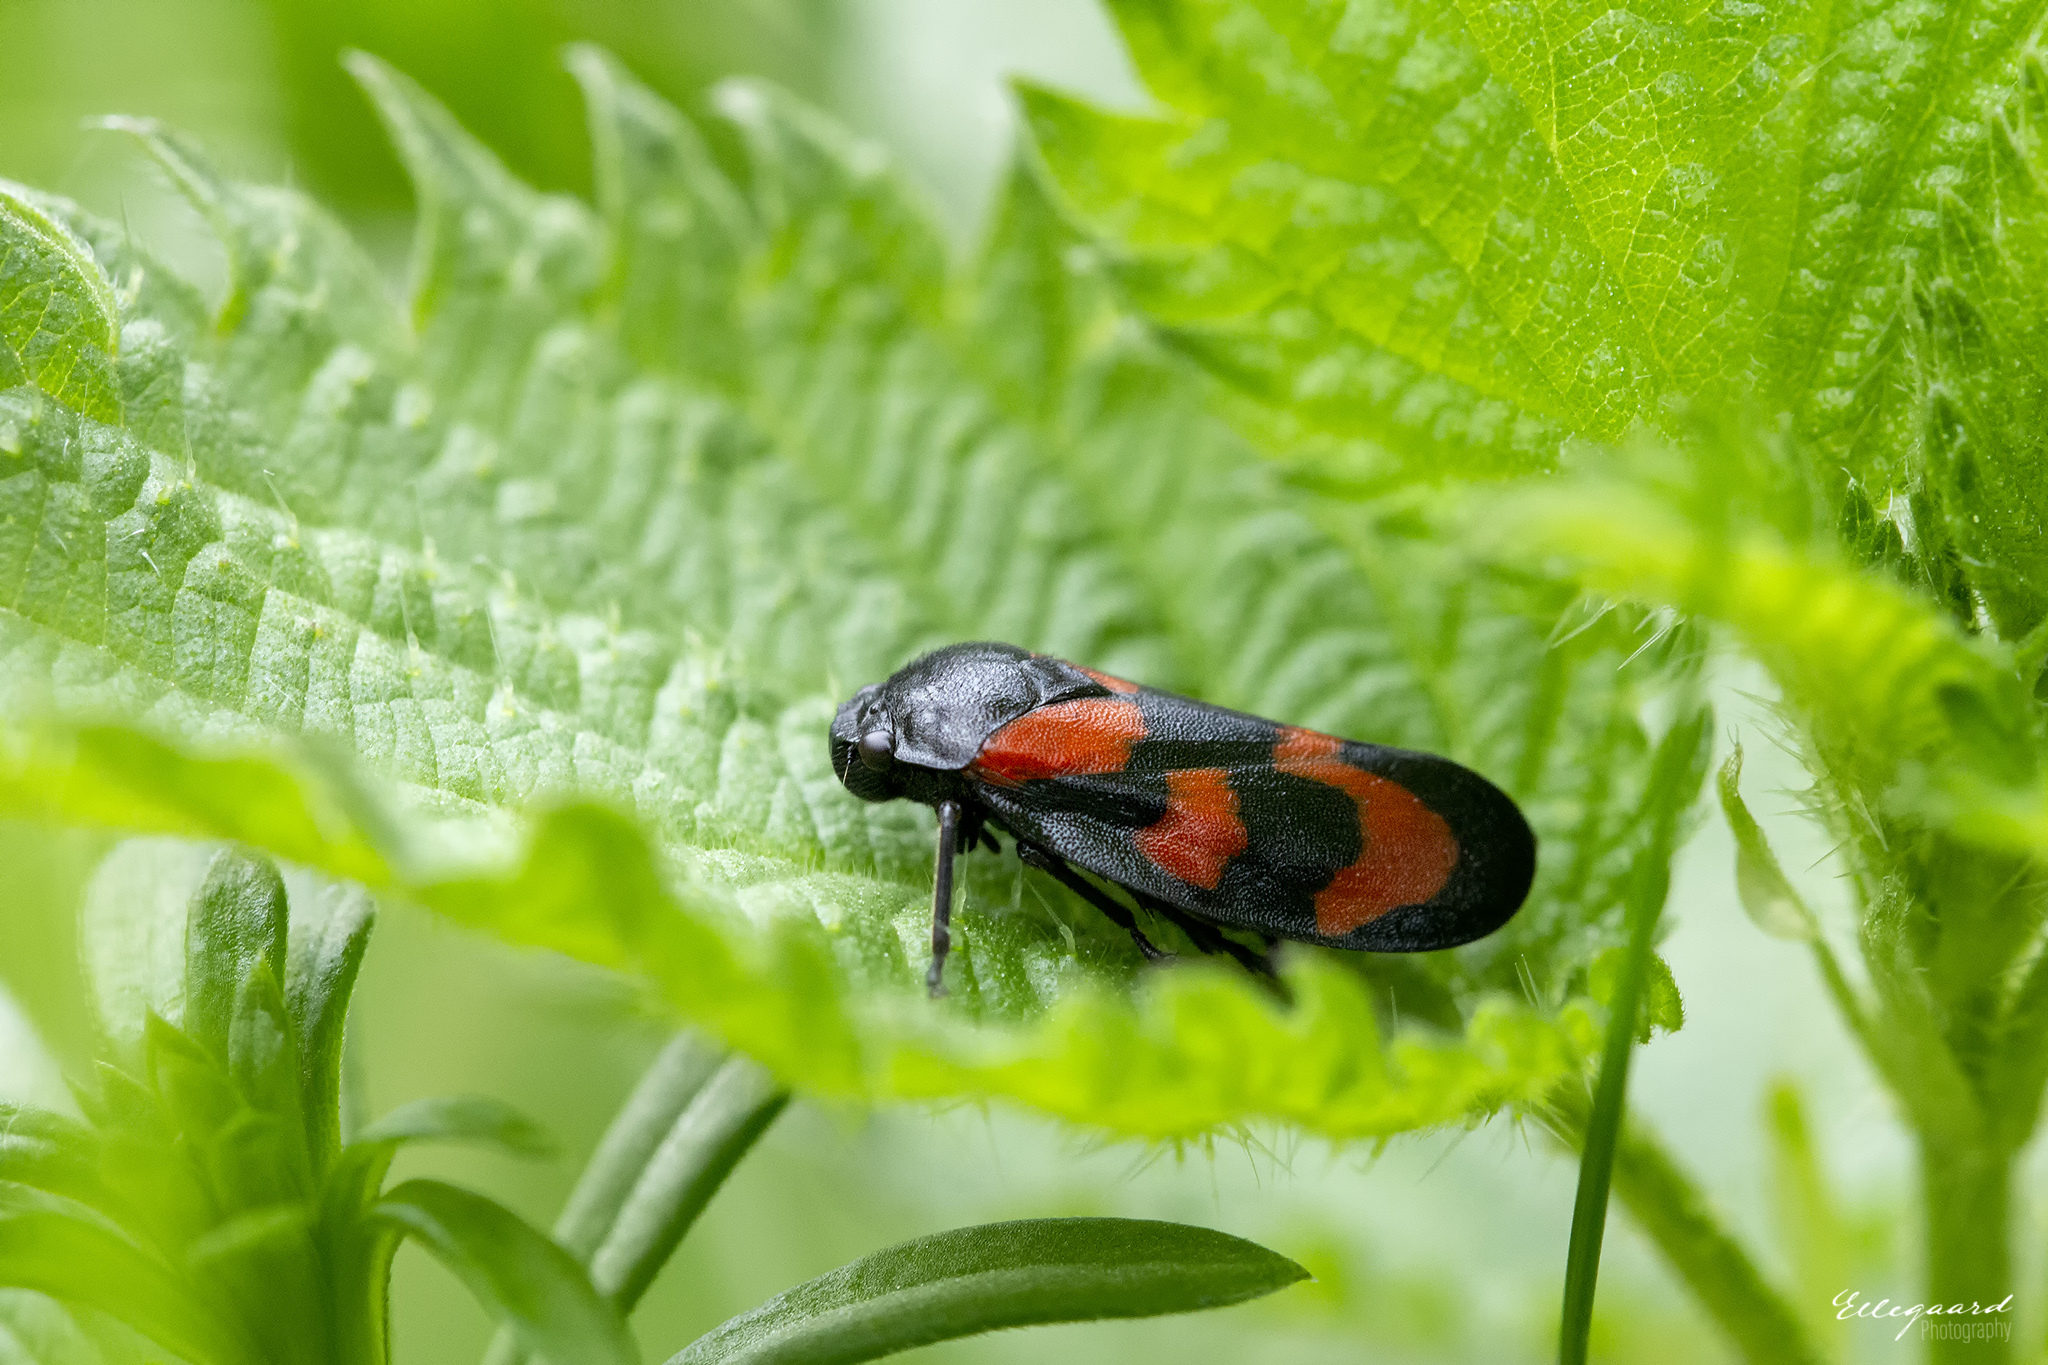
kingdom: Animalia
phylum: Arthropoda
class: Insecta
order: Hemiptera
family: Cercopidae
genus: Cercopis
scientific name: Cercopis vulnerata
